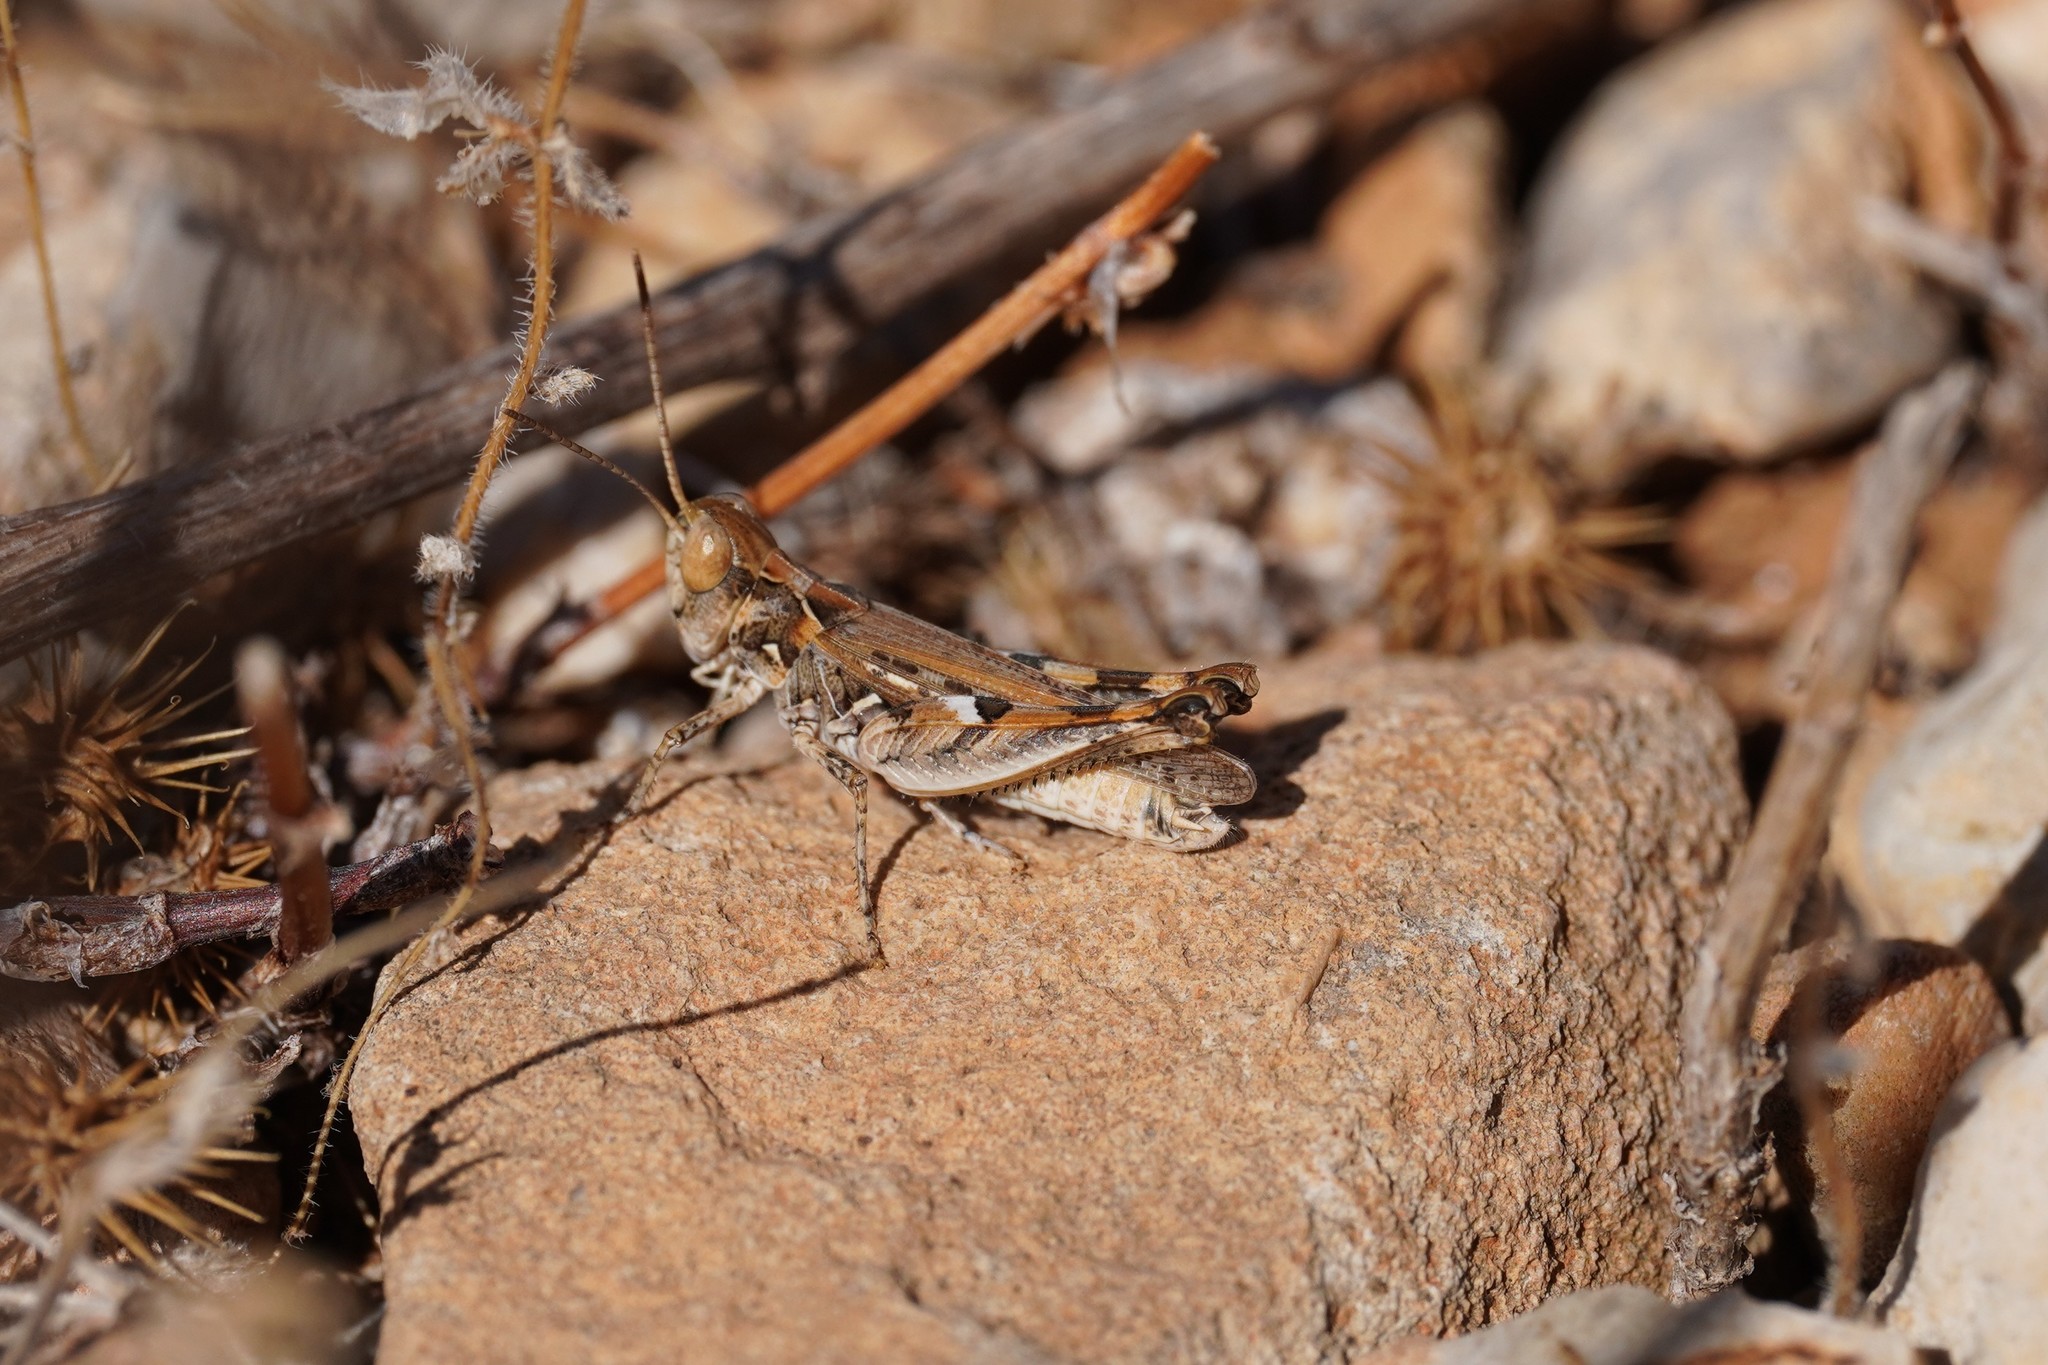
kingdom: Animalia
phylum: Arthropoda
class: Insecta
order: Orthoptera
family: Acrididae
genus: Dociostaurus
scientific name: Dociostaurus jagoi
